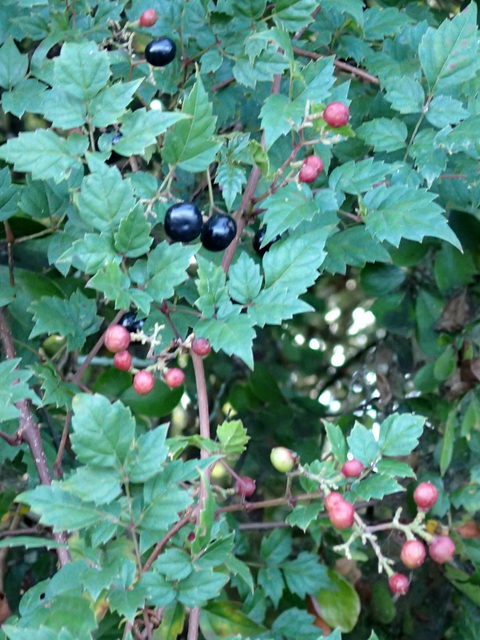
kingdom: Plantae
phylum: Tracheophyta
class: Magnoliopsida
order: Vitales
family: Vitaceae
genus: Nekemias
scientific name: Nekemias arborea
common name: Peppervine
